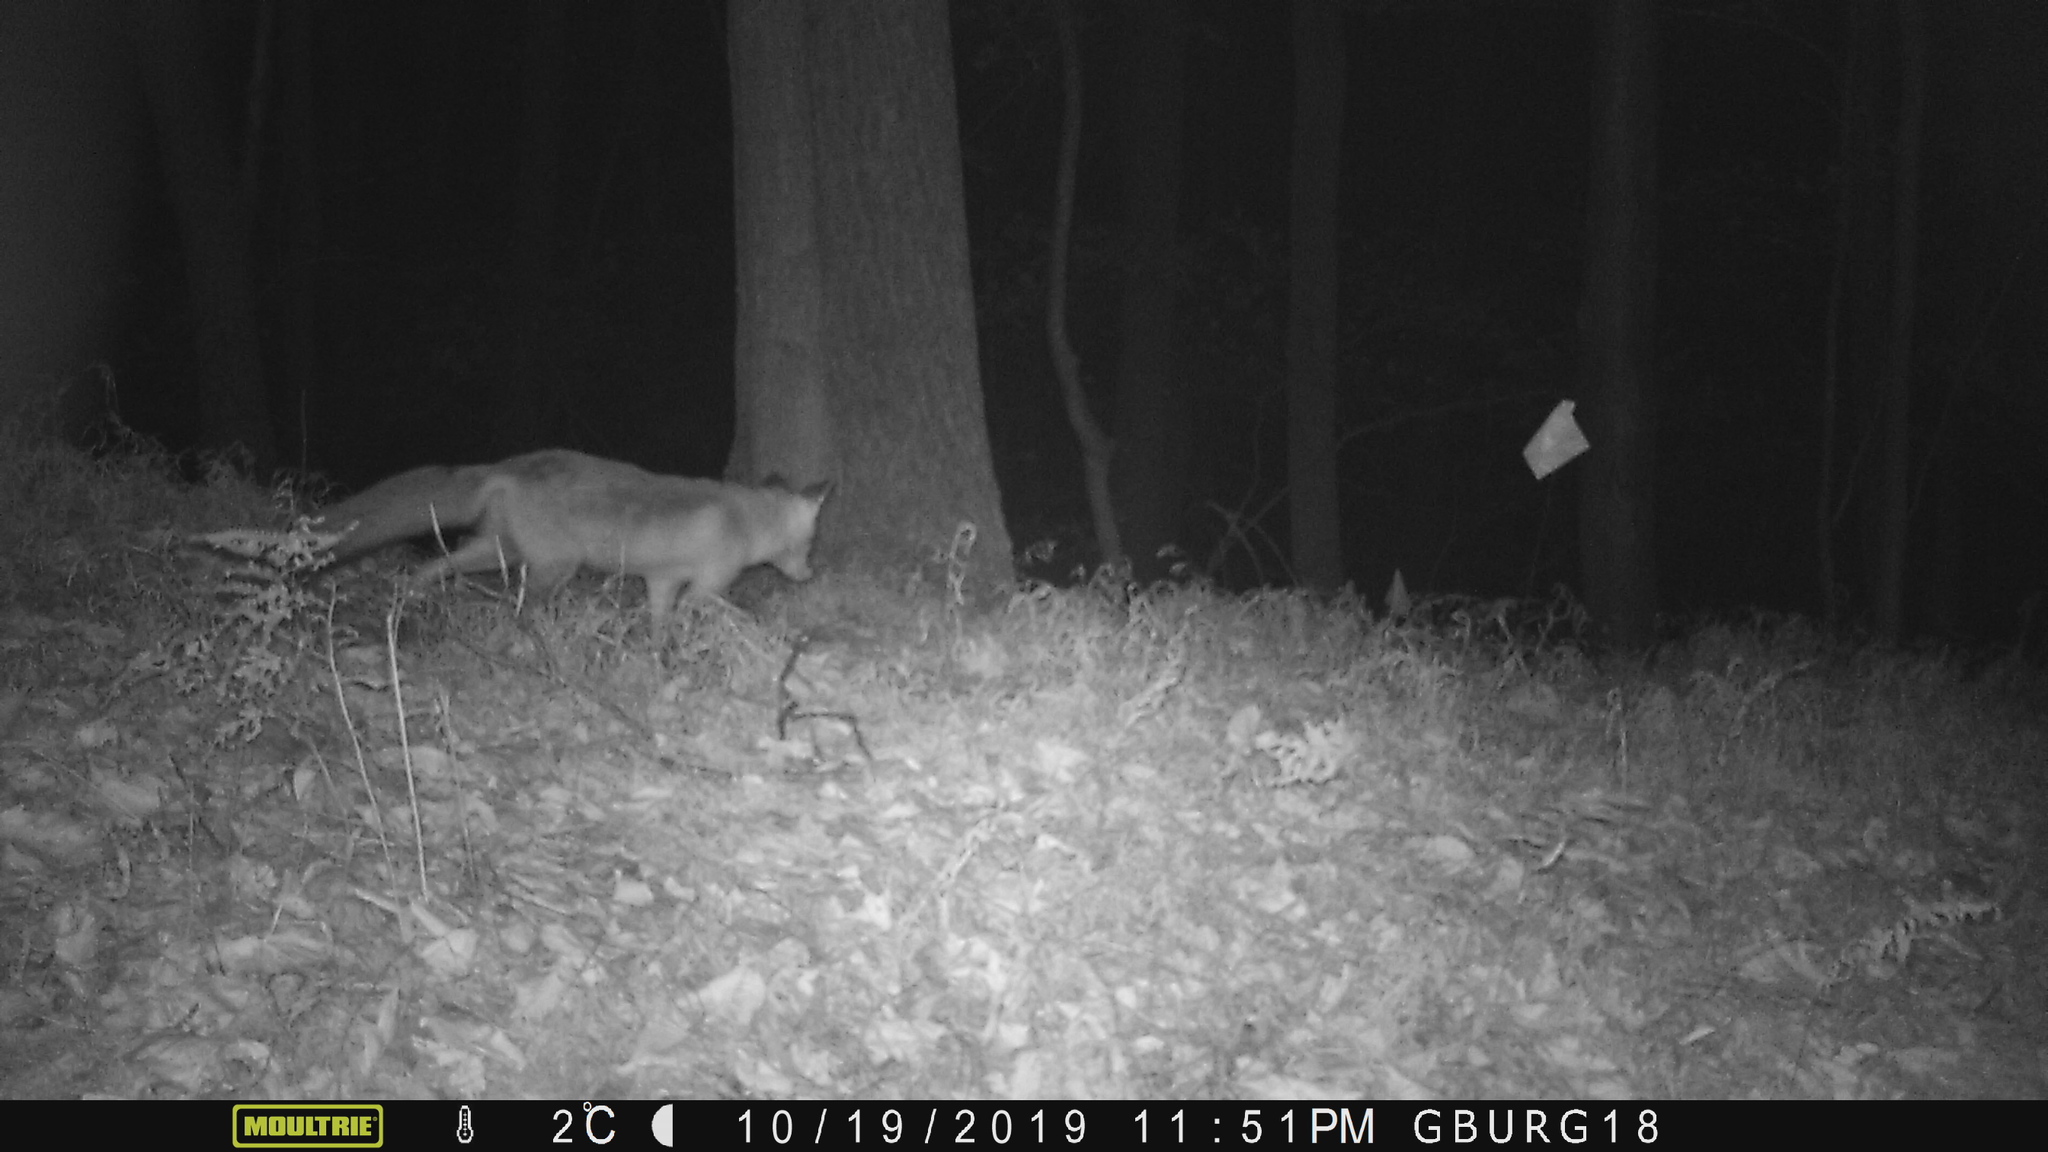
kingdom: Animalia
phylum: Chordata
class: Mammalia
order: Carnivora
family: Canidae
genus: Vulpes
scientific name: Vulpes vulpes
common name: Red fox
